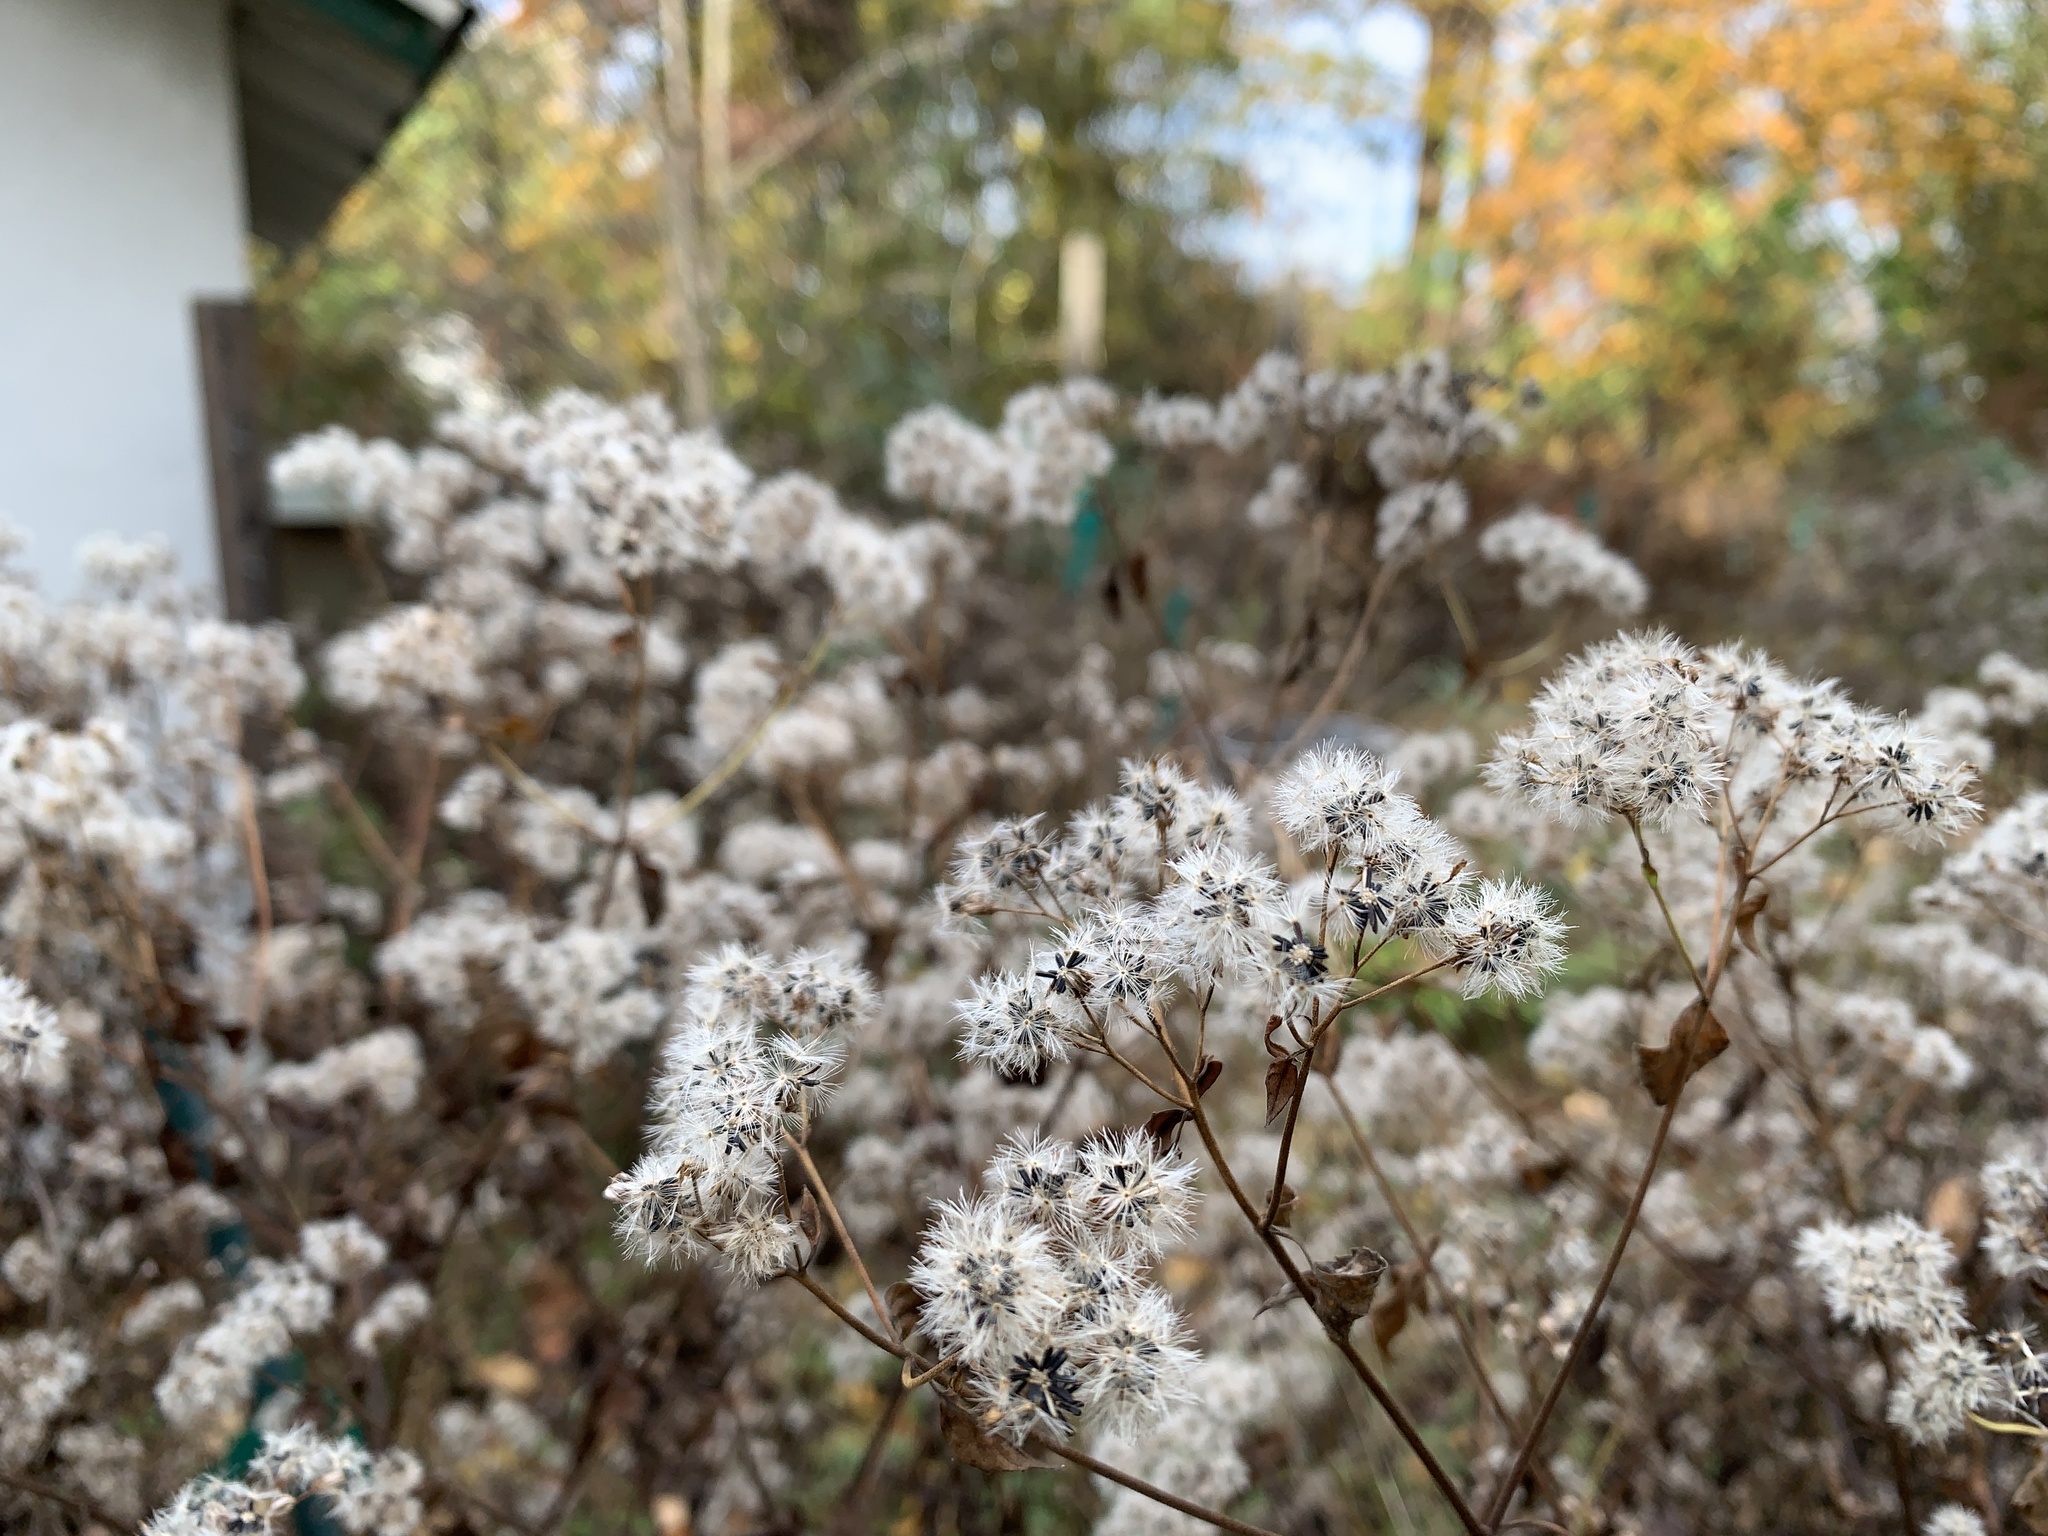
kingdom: Plantae
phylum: Tracheophyta
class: Magnoliopsida
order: Asterales
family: Asteraceae
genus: Ageratina
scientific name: Ageratina altissima
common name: White snakeroot
